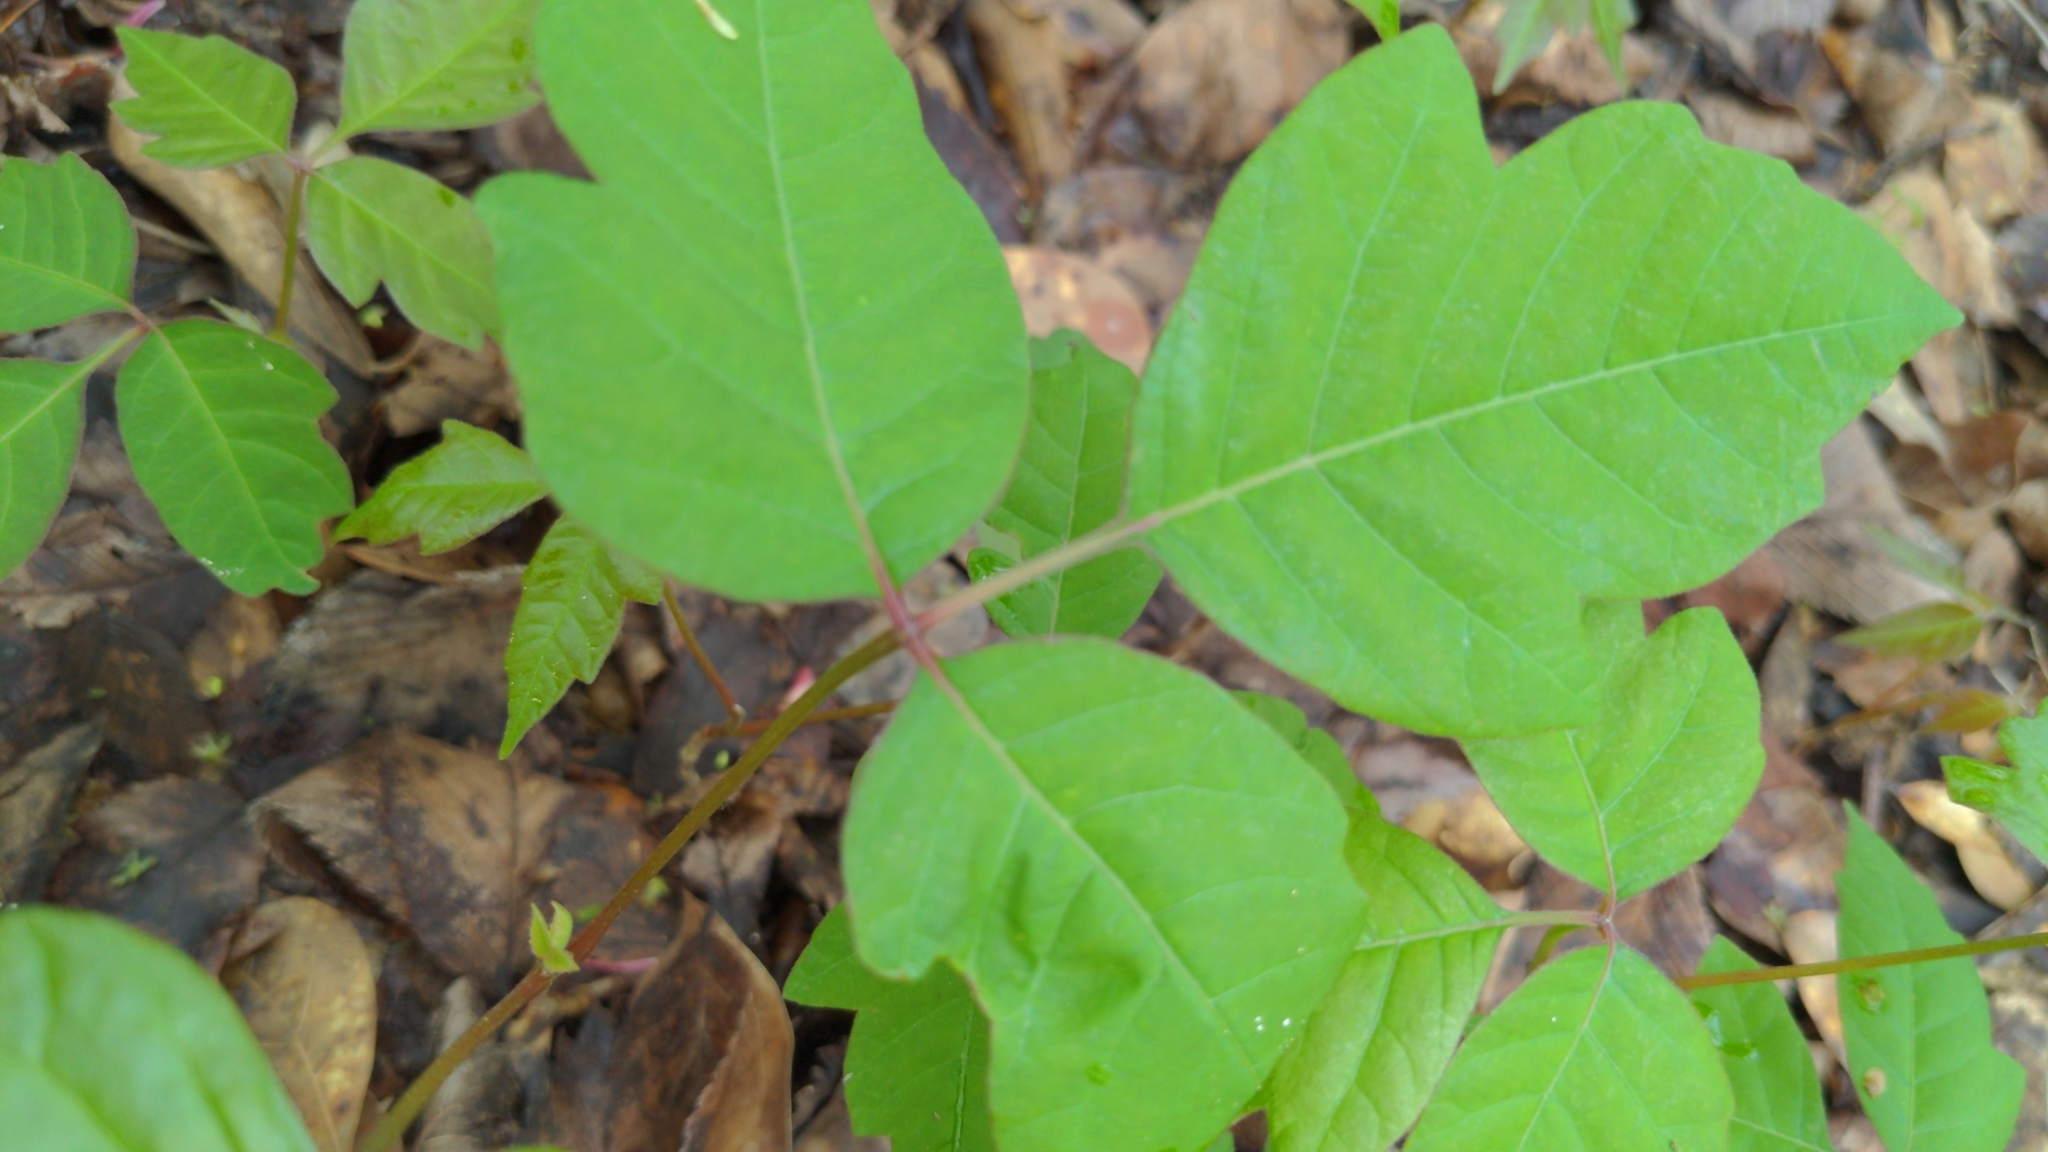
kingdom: Plantae
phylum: Tracheophyta
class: Magnoliopsida
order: Sapindales
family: Anacardiaceae
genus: Toxicodendron
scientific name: Toxicodendron radicans
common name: Poison ivy
